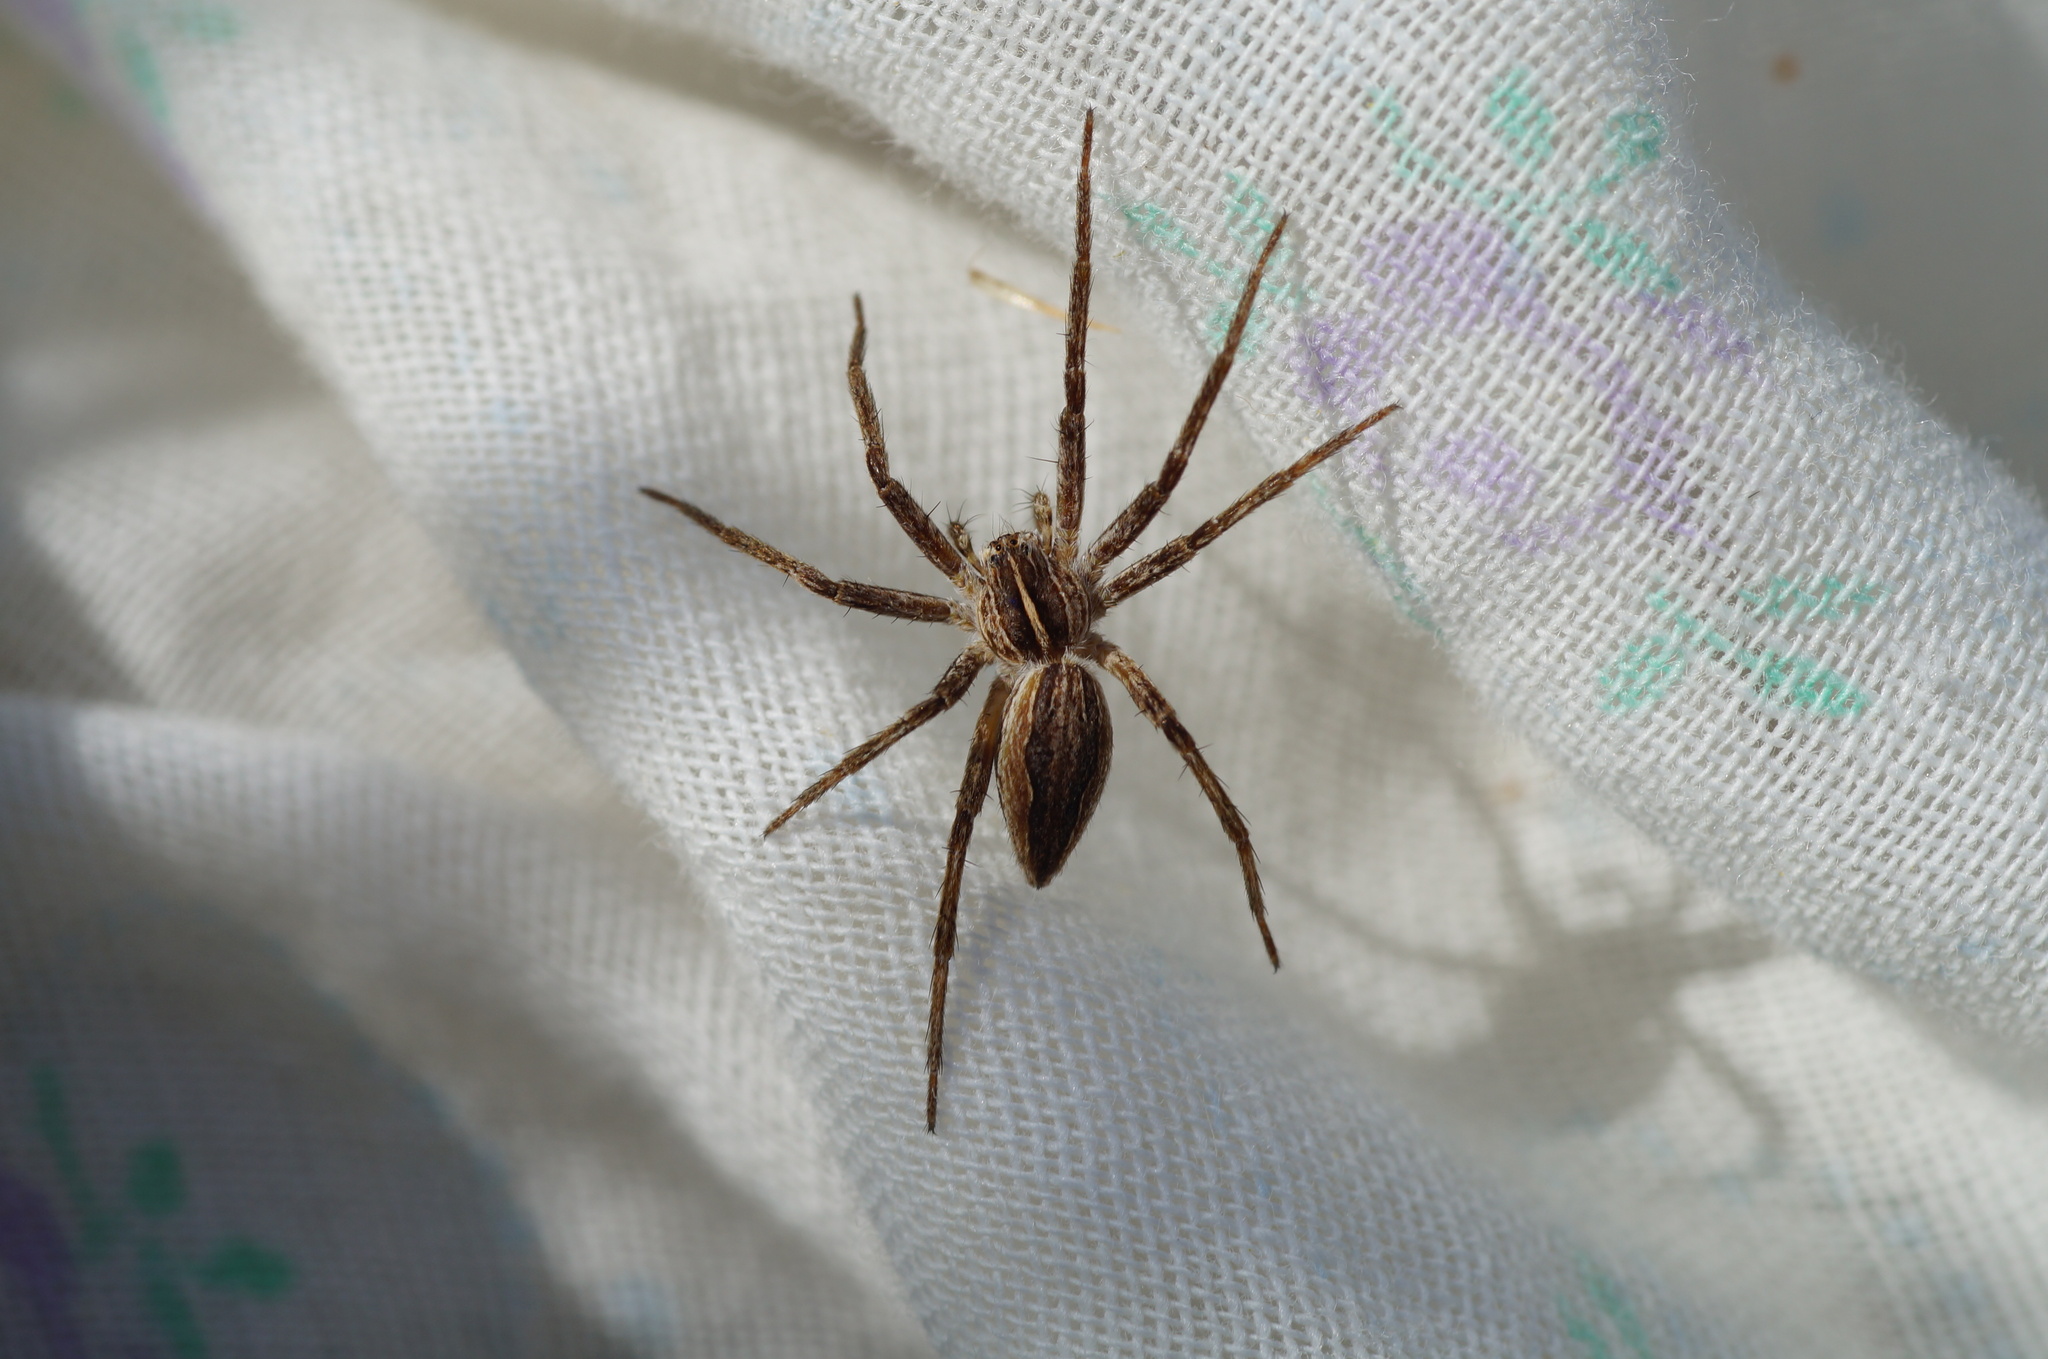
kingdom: Animalia
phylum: Arthropoda
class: Arachnida
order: Araneae
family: Pisauridae
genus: Pisaura
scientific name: Pisaura mirabilis
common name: Tent spider
